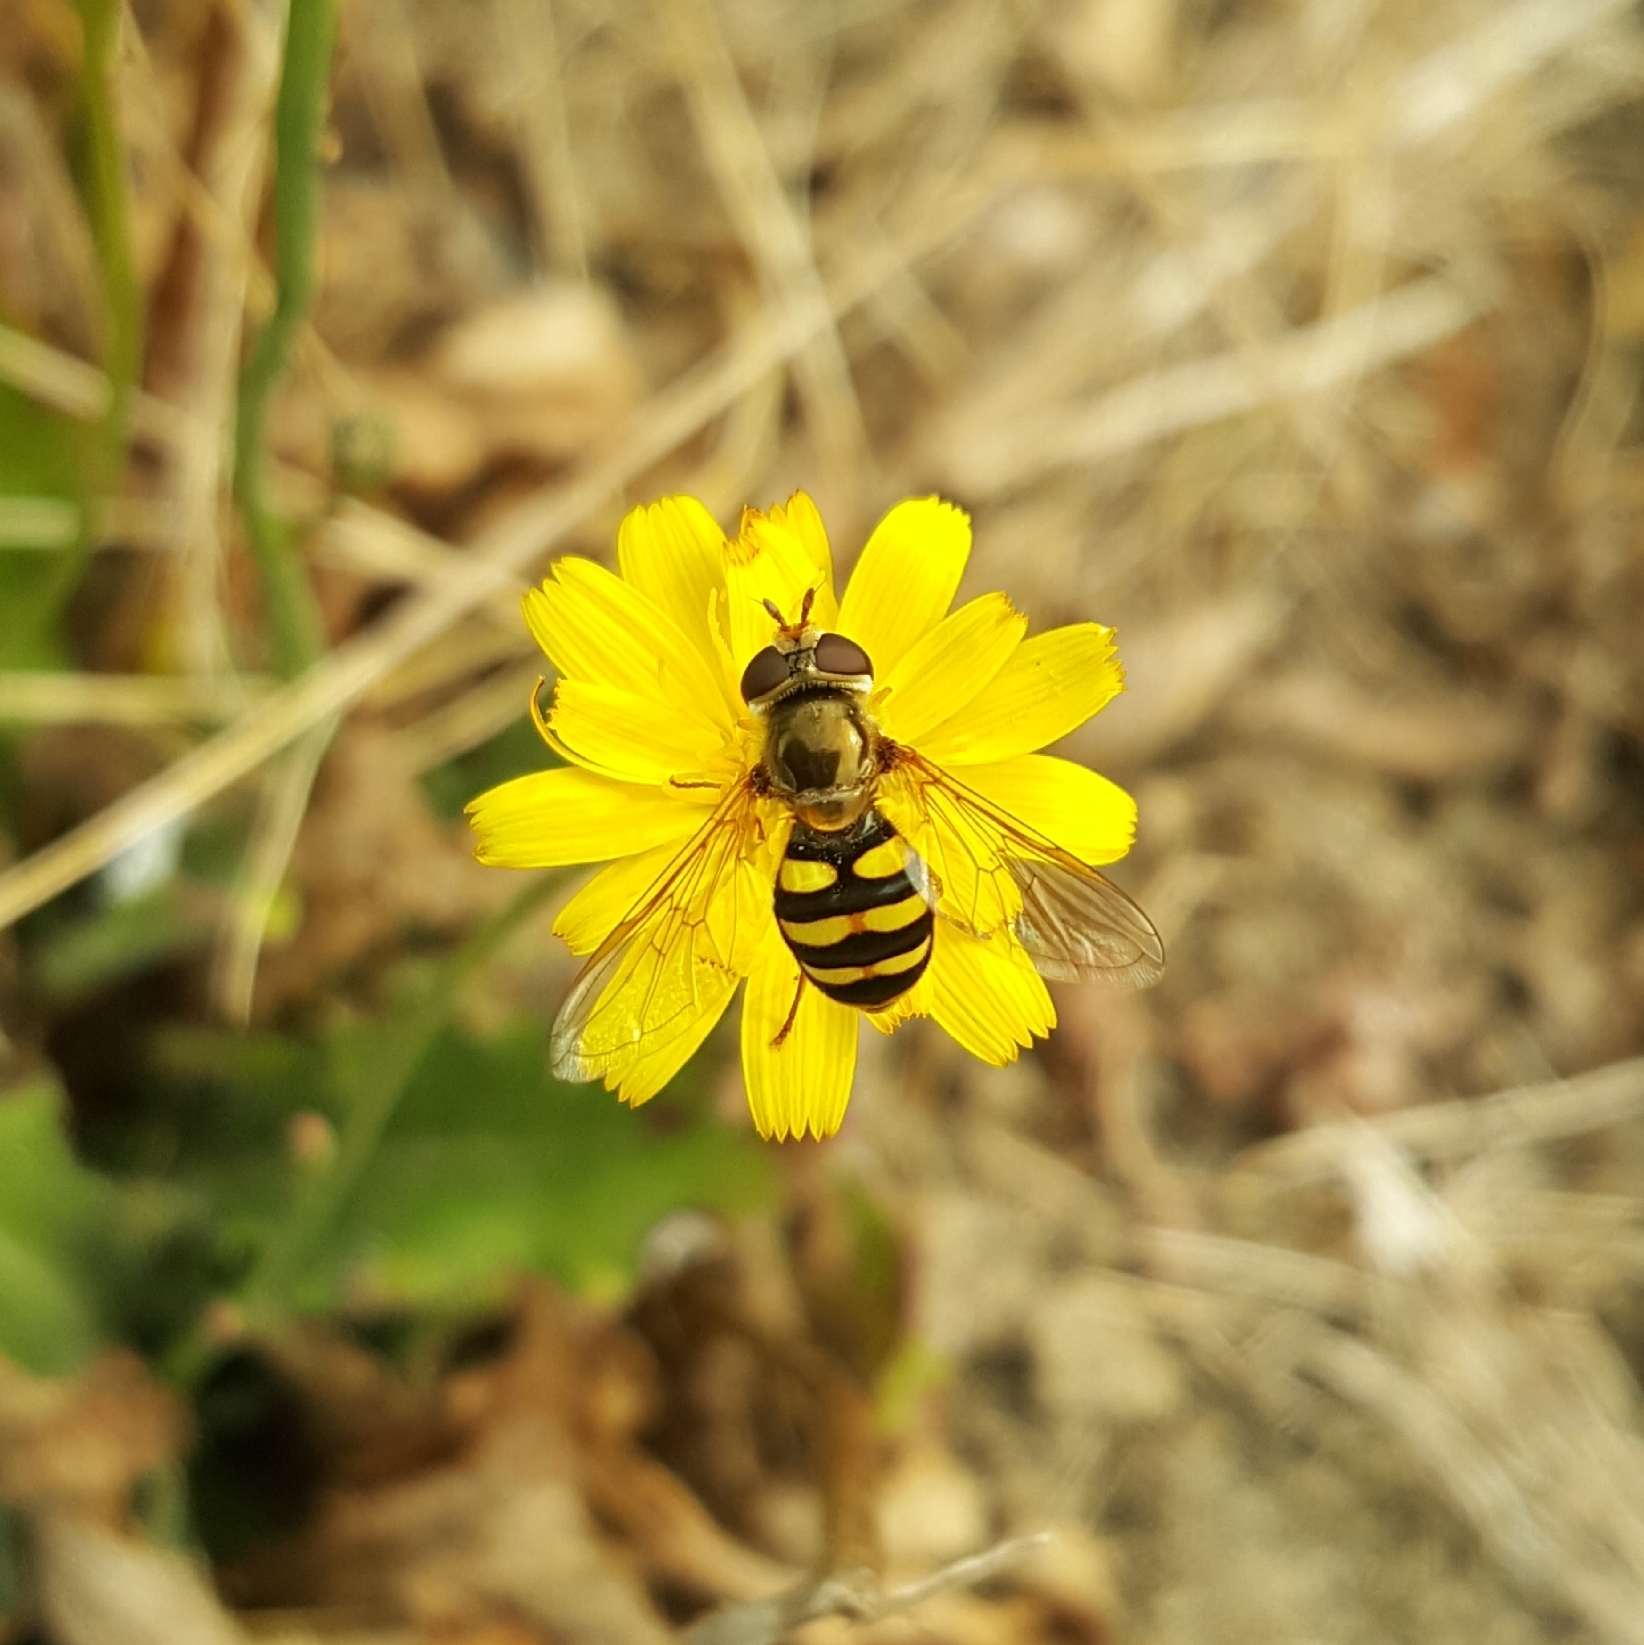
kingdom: Animalia
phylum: Arthropoda
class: Insecta
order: Diptera
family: Syrphidae
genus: Eupeodes
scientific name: Eupeodes fumipennis
